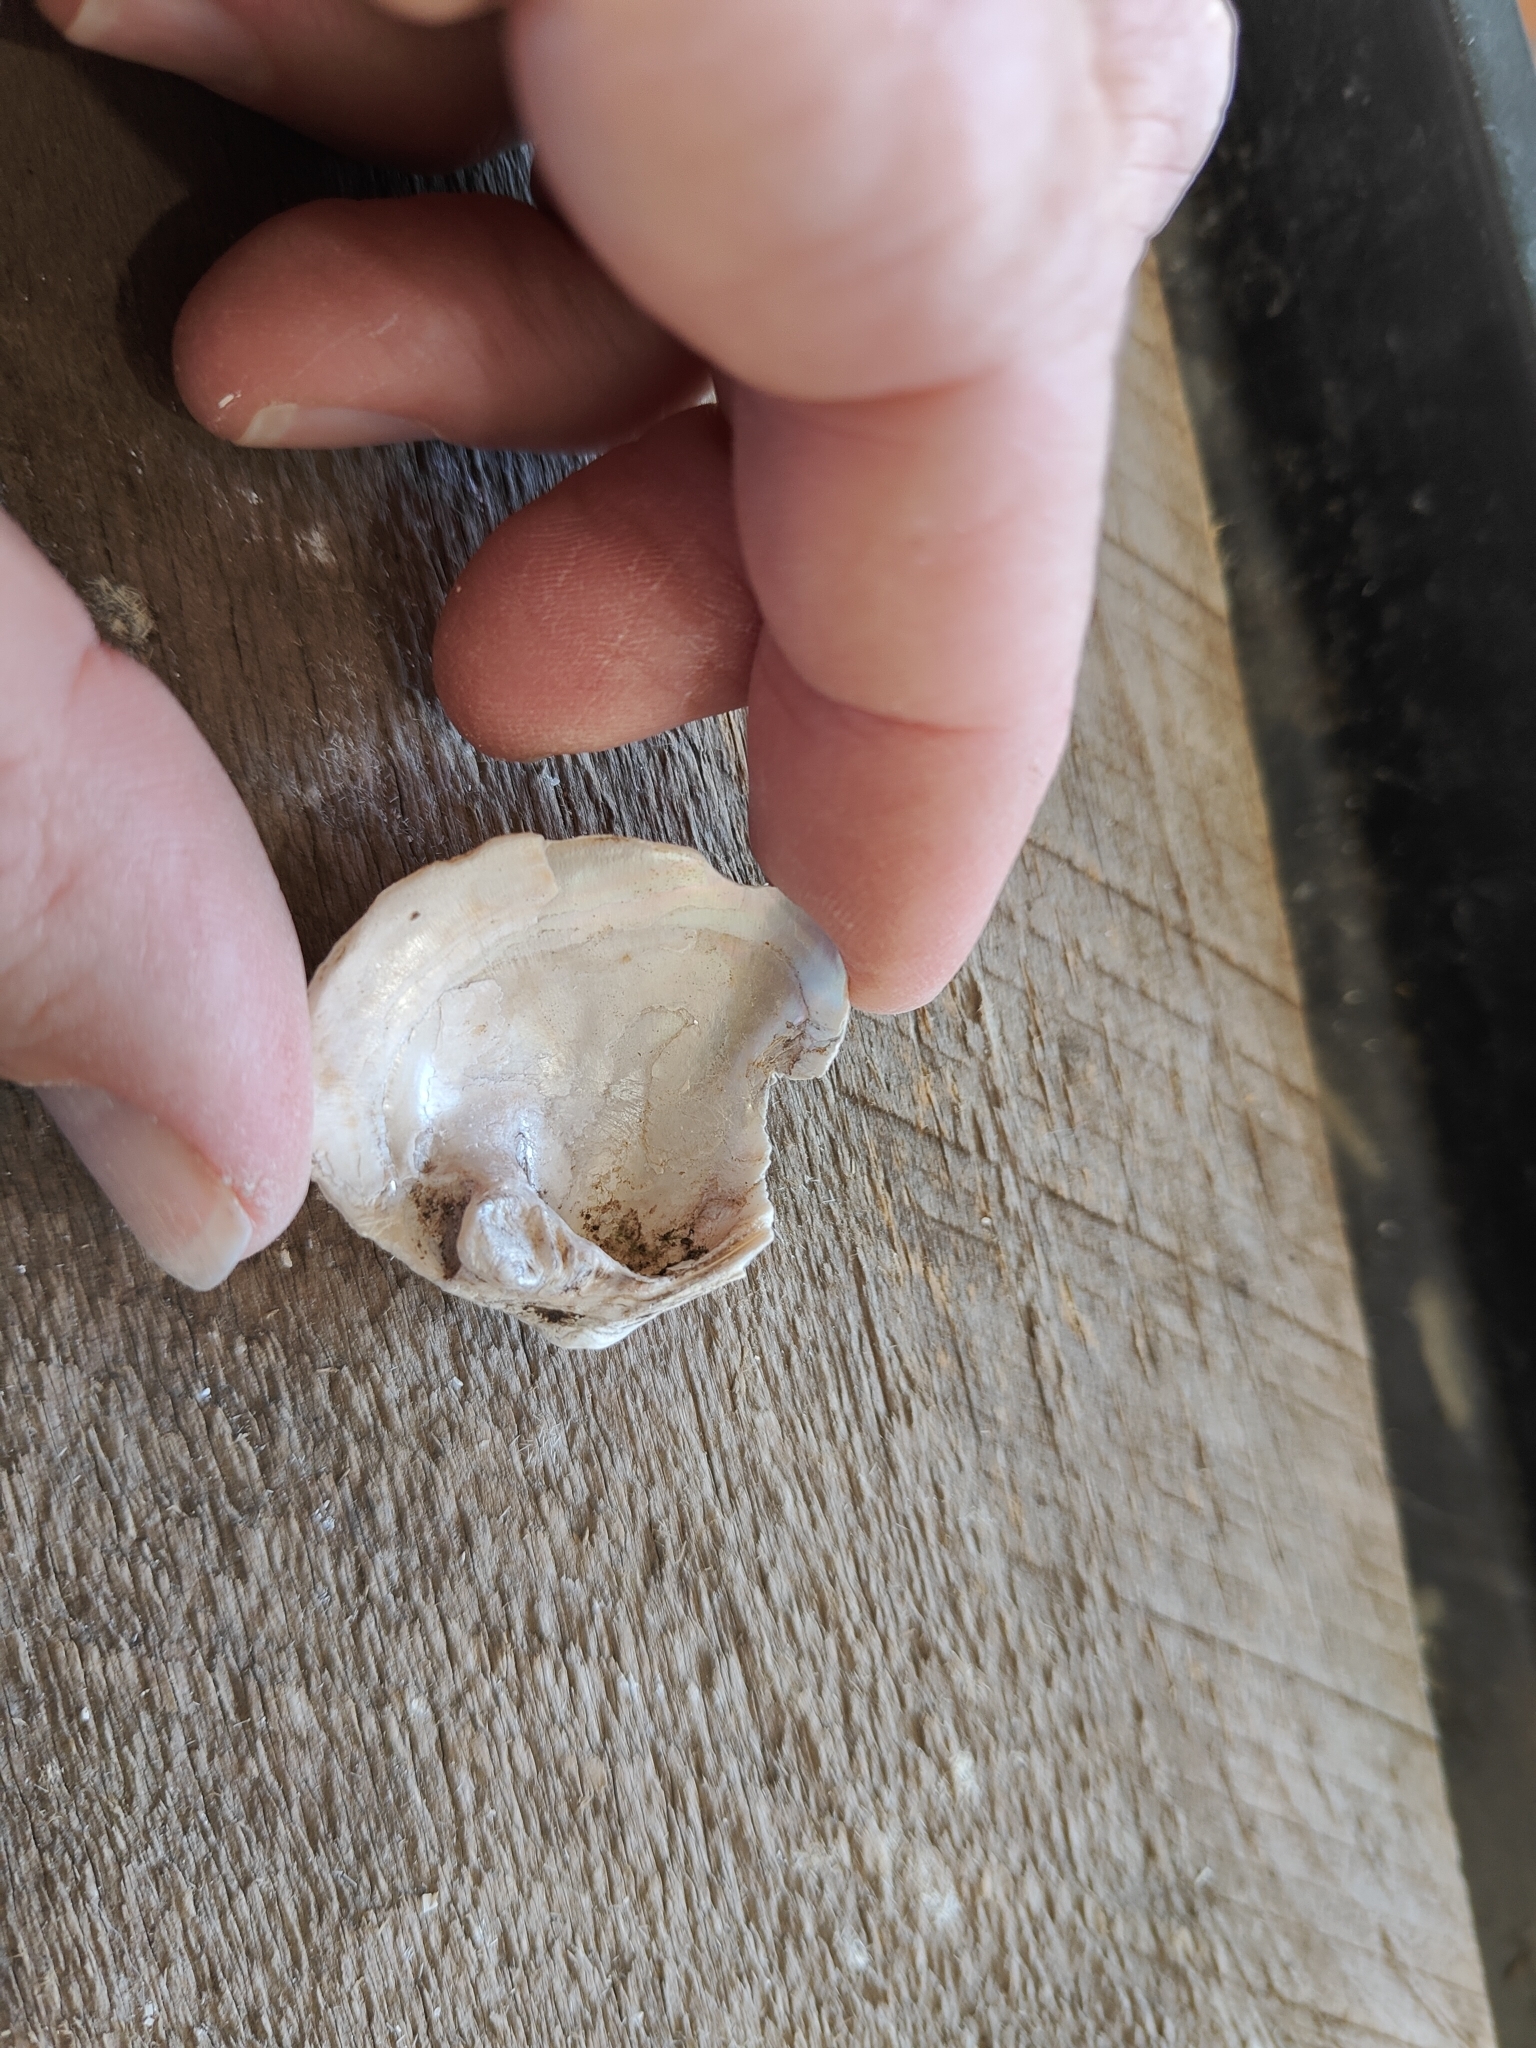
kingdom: Animalia
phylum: Mollusca
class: Bivalvia
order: Unionida
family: Unionidae
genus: Cyclonaias
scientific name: Cyclonaias pustulosa
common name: Pimpleback
